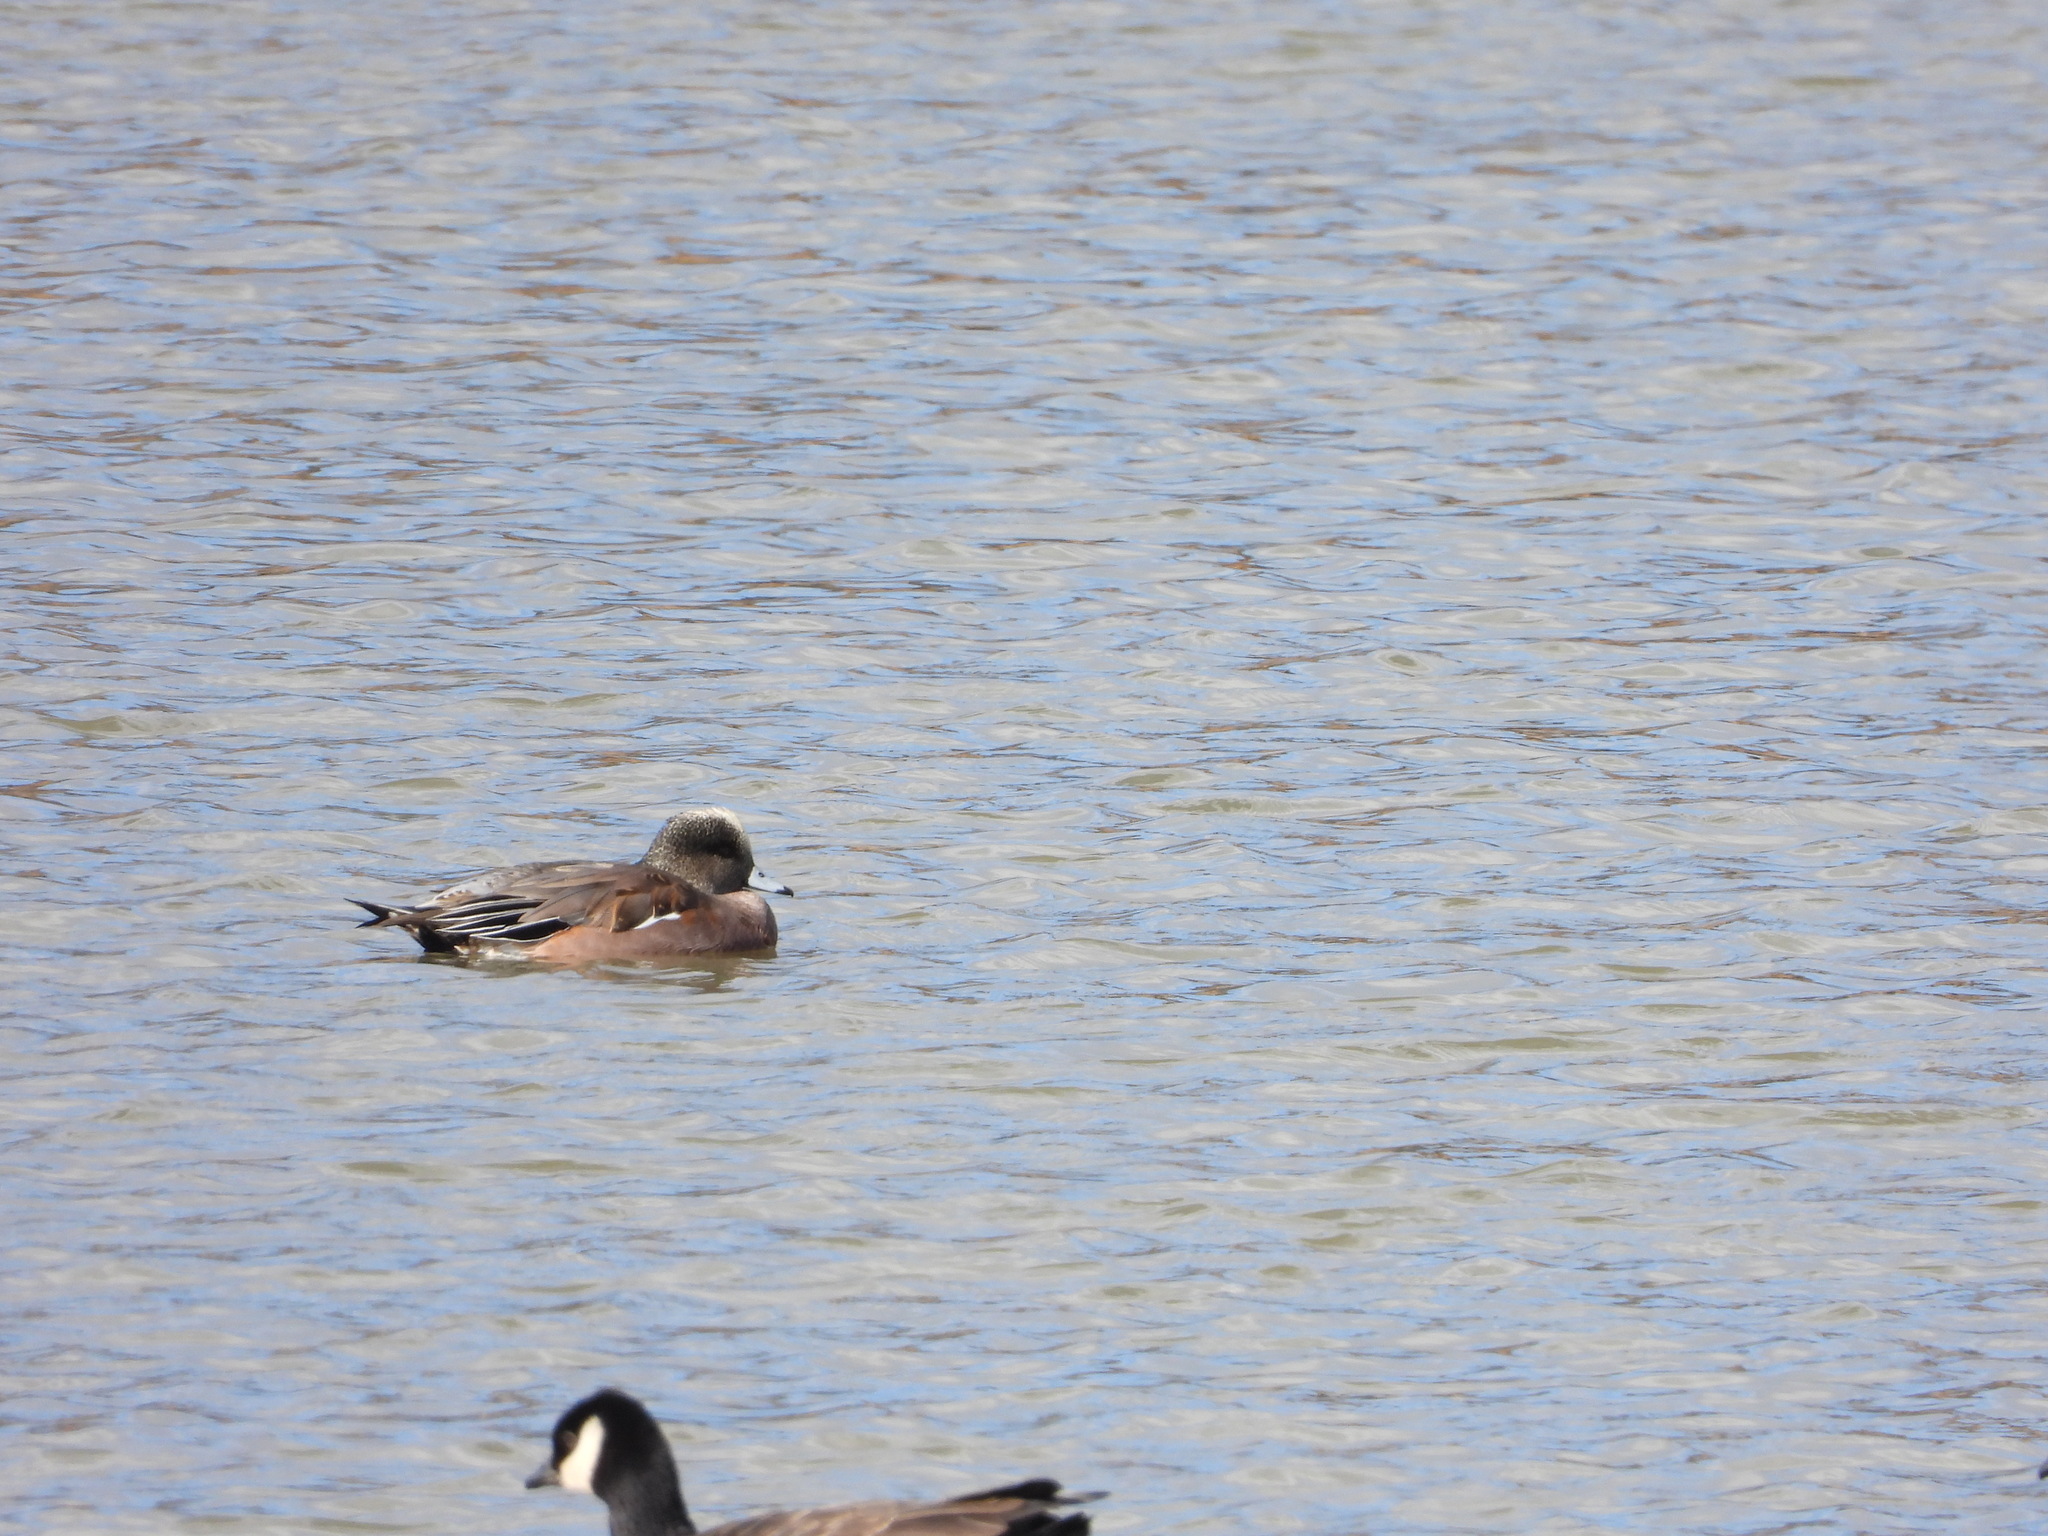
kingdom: Animalia
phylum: Chordata
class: Aves
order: Anseriformes
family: Anatidae
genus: Mareca
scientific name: Mareca americana
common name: American wigeon
